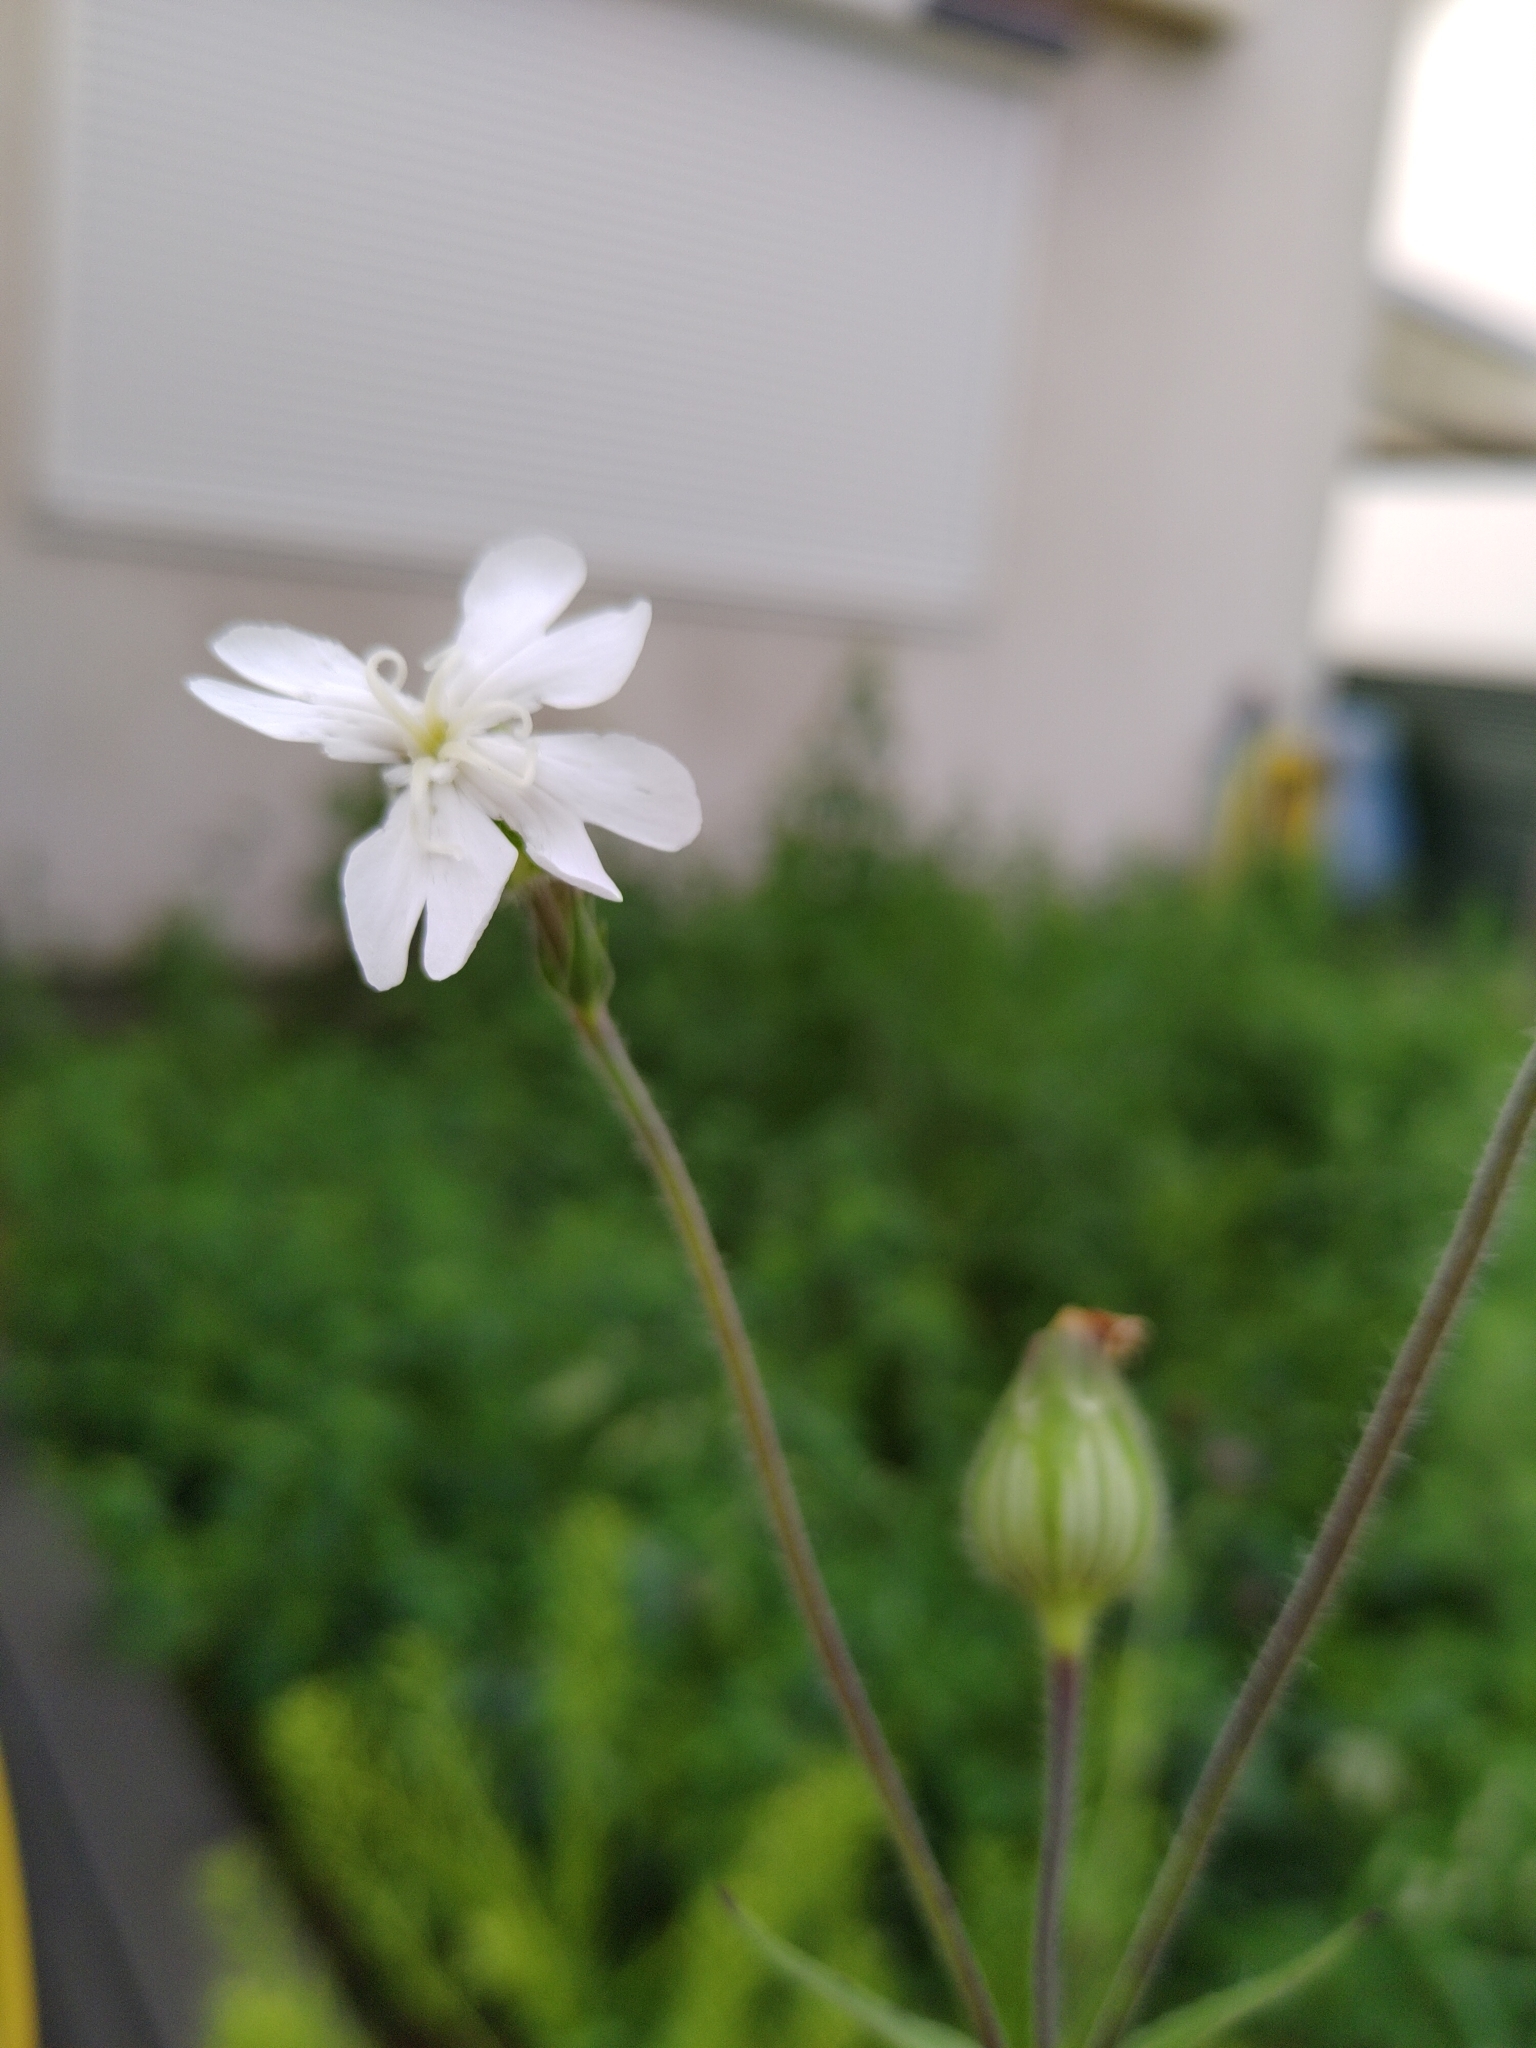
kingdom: Plantae
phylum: Tracheophyta
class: Magnoliopsida
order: Caryophyllales
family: Caryophyllaceae
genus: Silene
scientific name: Silene latifolia
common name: White campion
